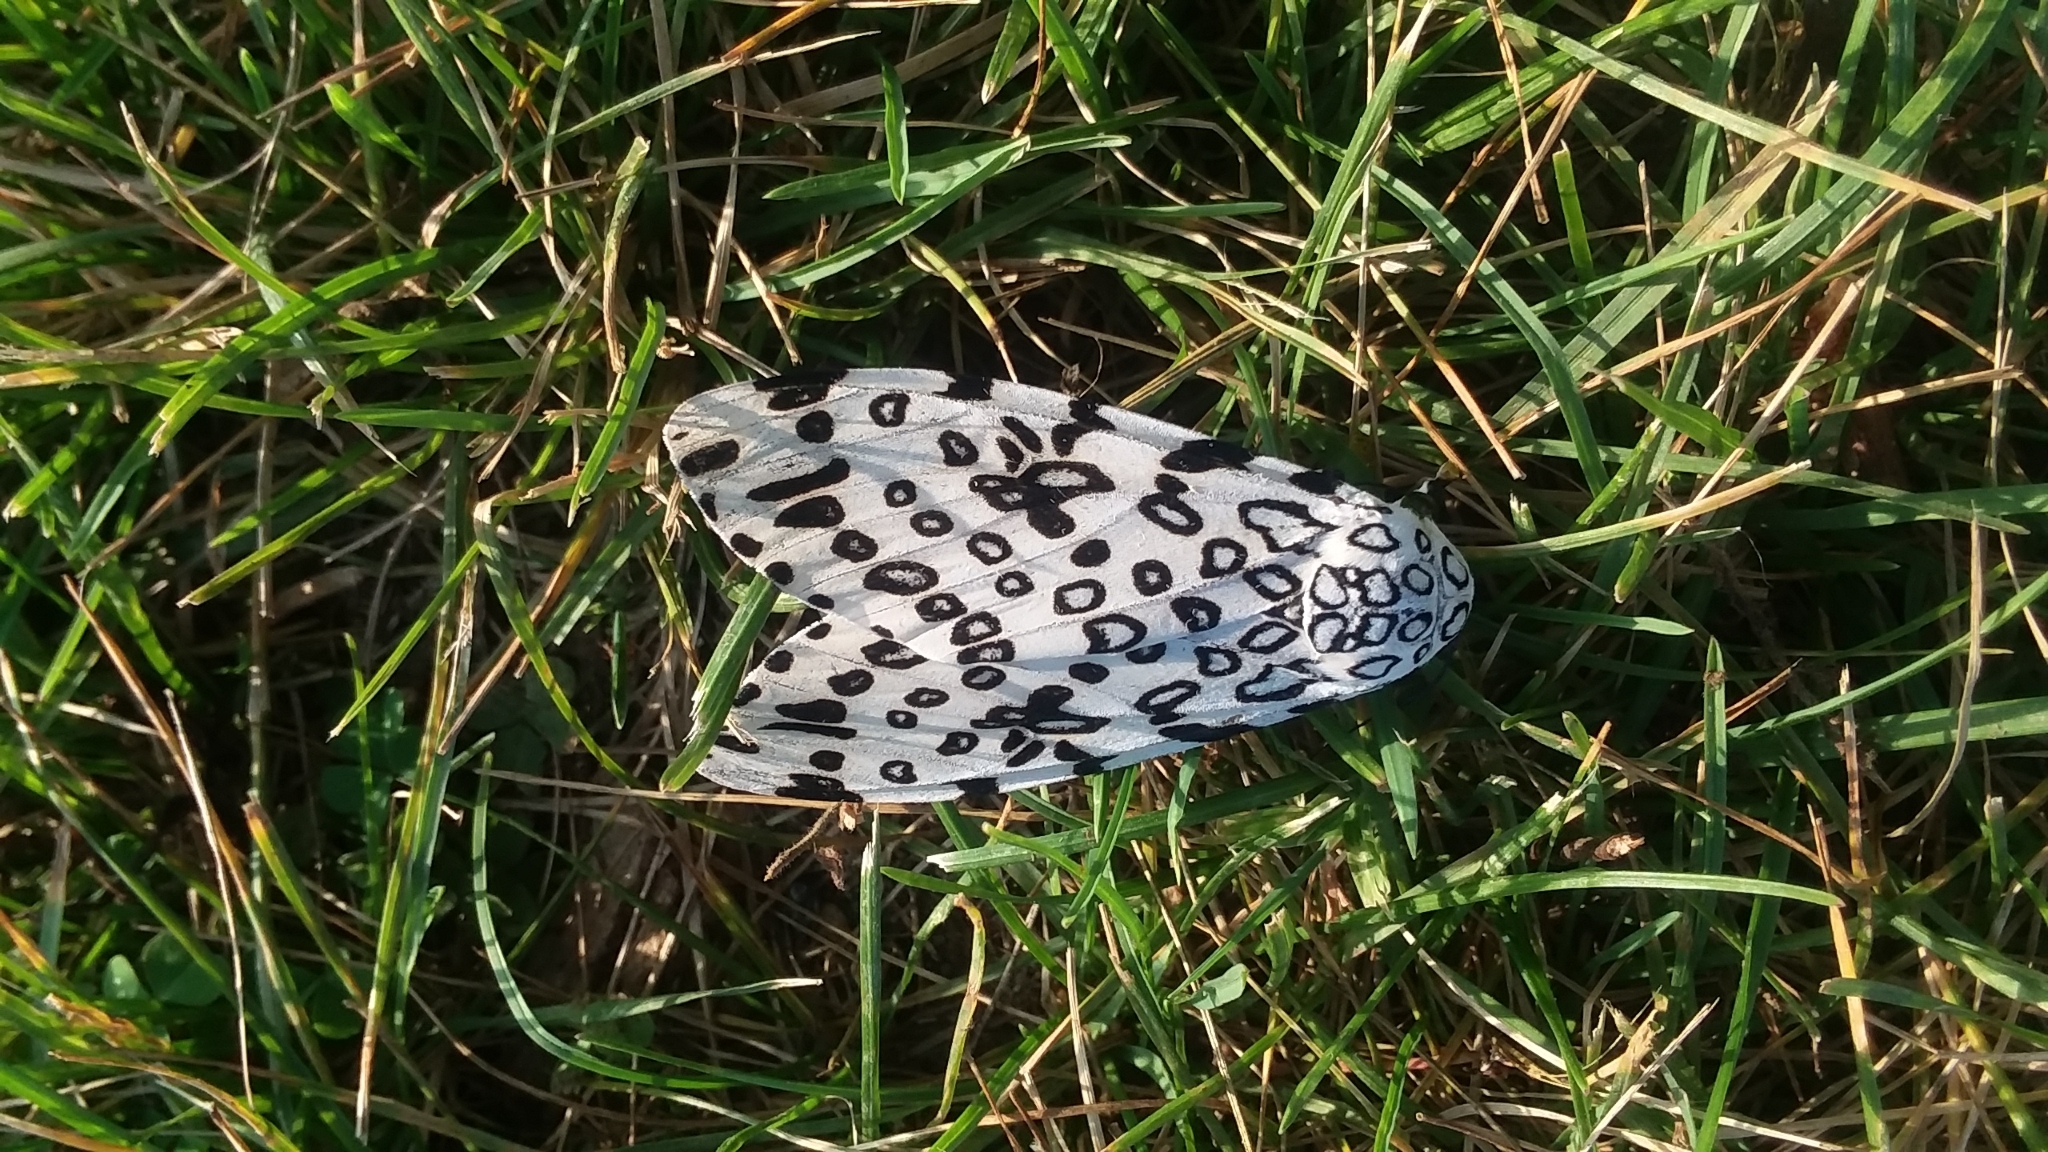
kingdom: Animalia
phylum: Arthropoda
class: Insecta
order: Lepidoptera
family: Erebidae
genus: Hypercompe
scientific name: Hypercompe scribonia
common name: Giant leopard moth
